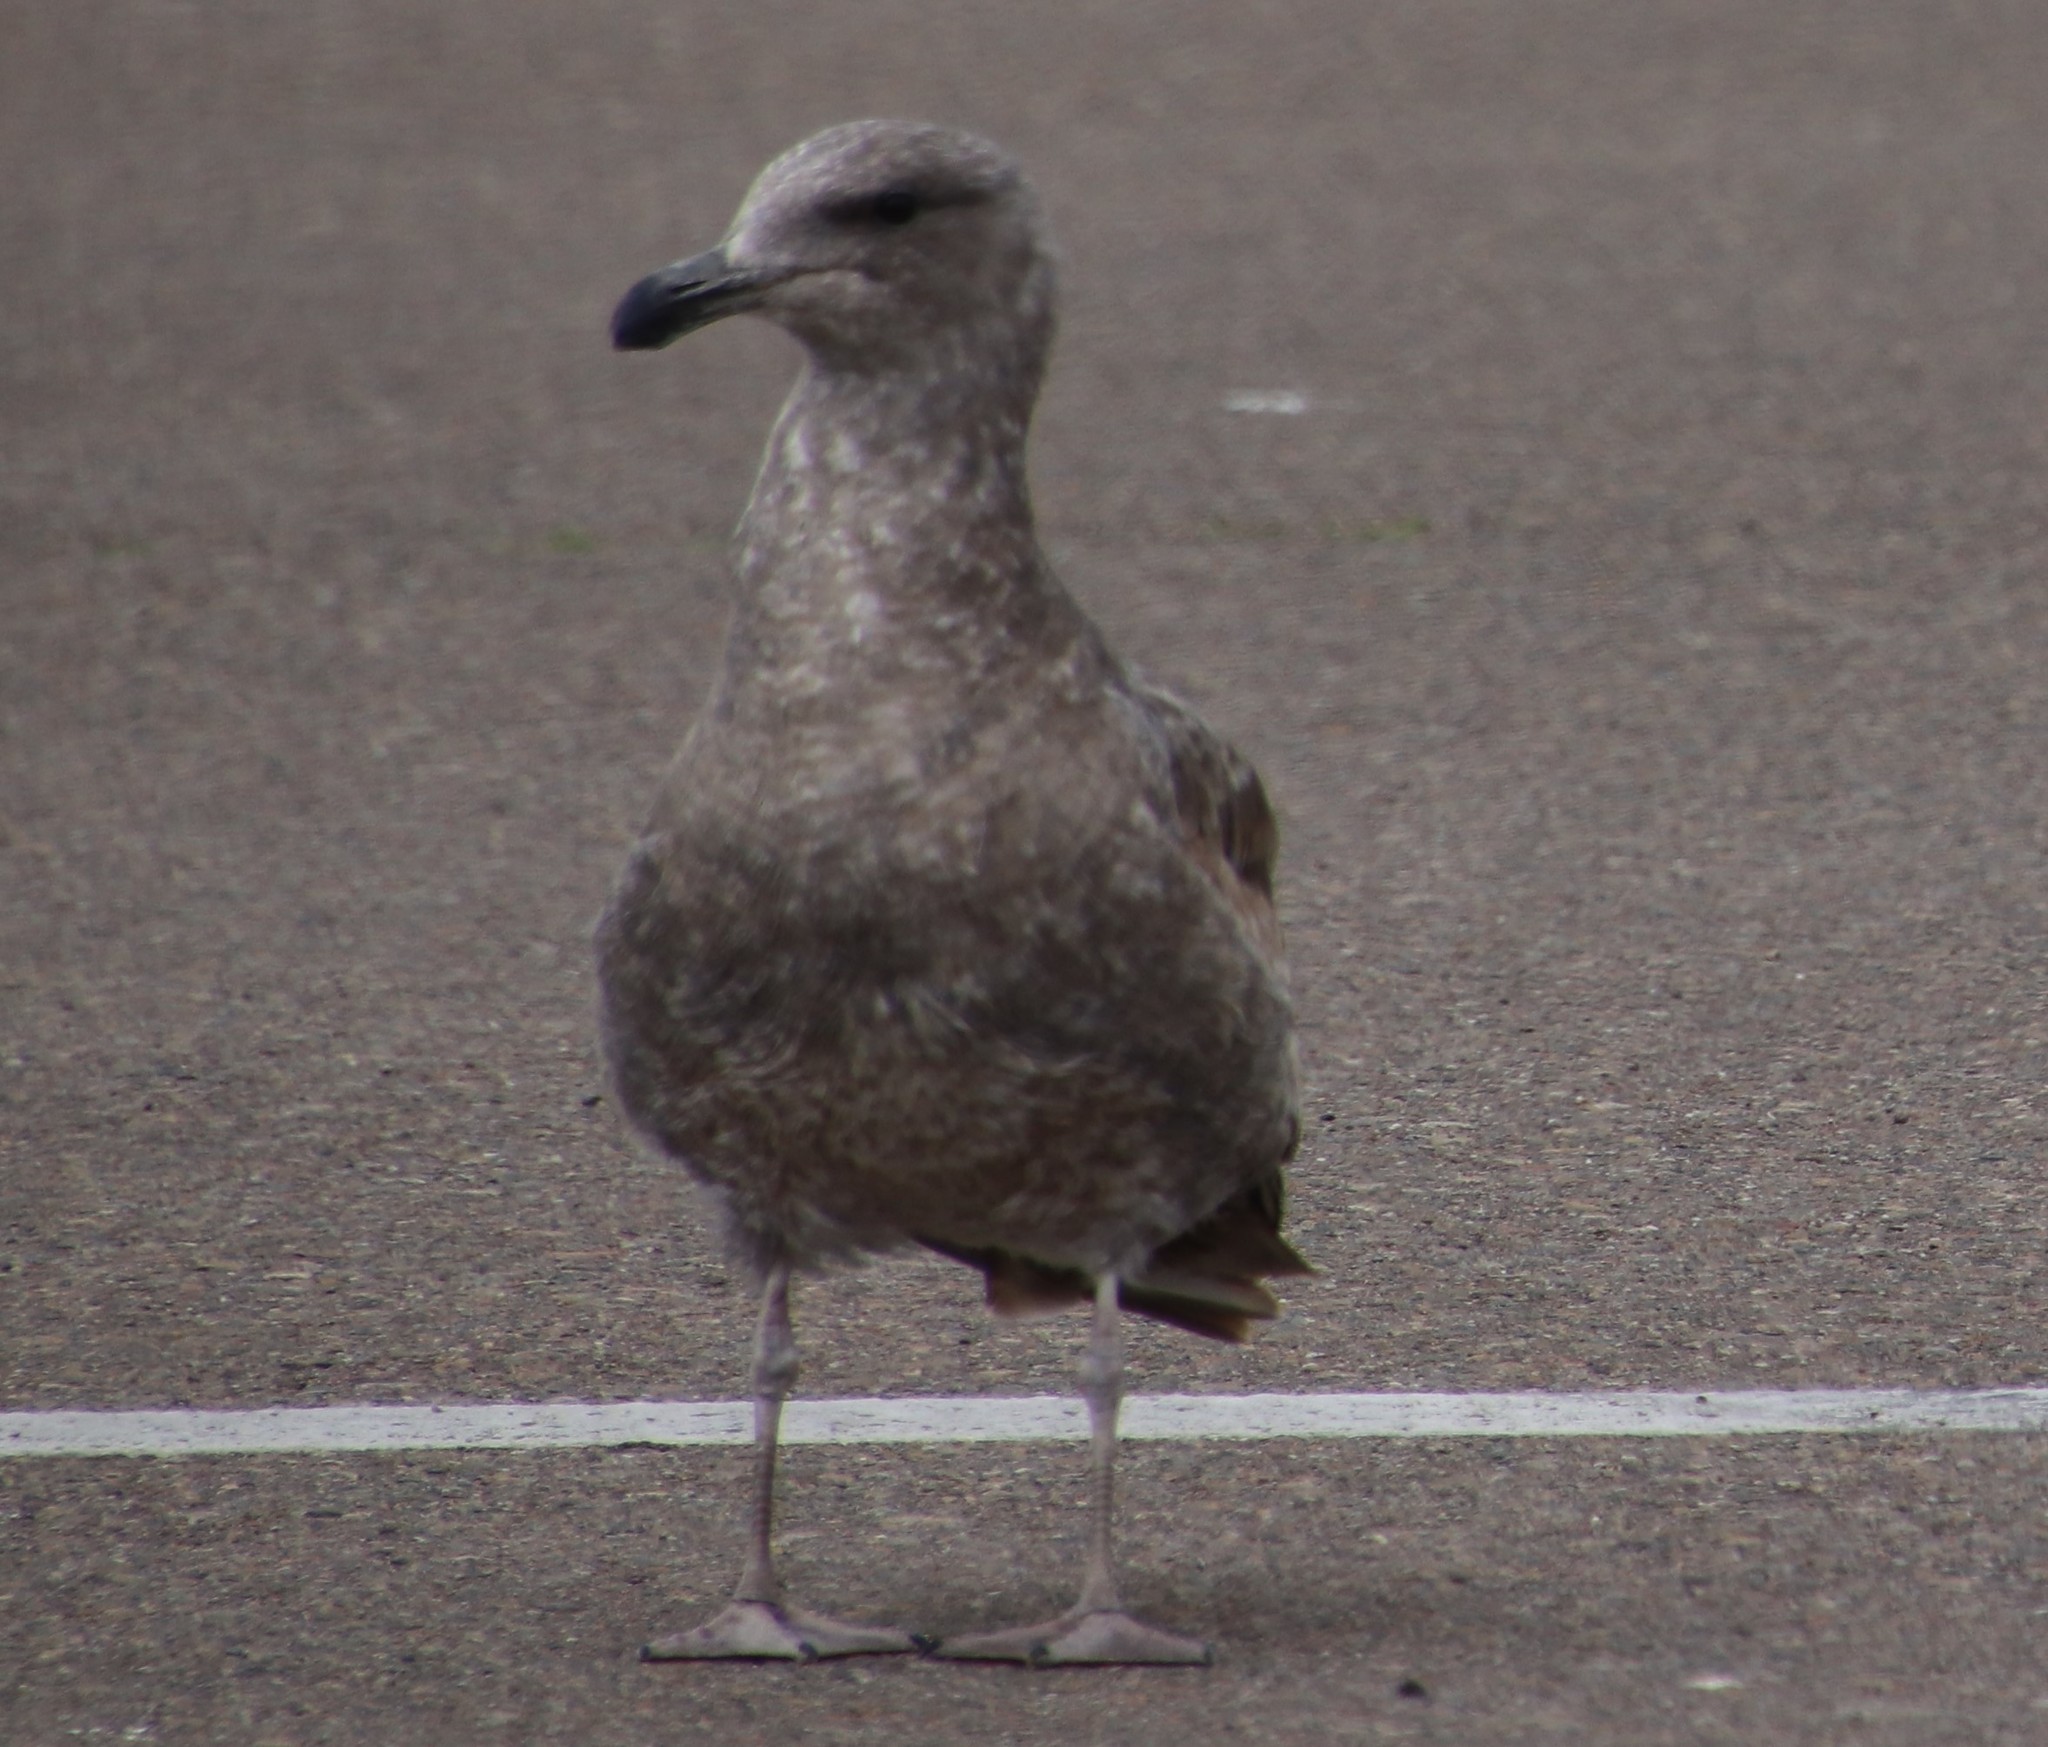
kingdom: Animalia
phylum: Chordata
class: Aves
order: Charadriiformes
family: Laridae
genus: Larus
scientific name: Larus occidentalis
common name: Western gull
